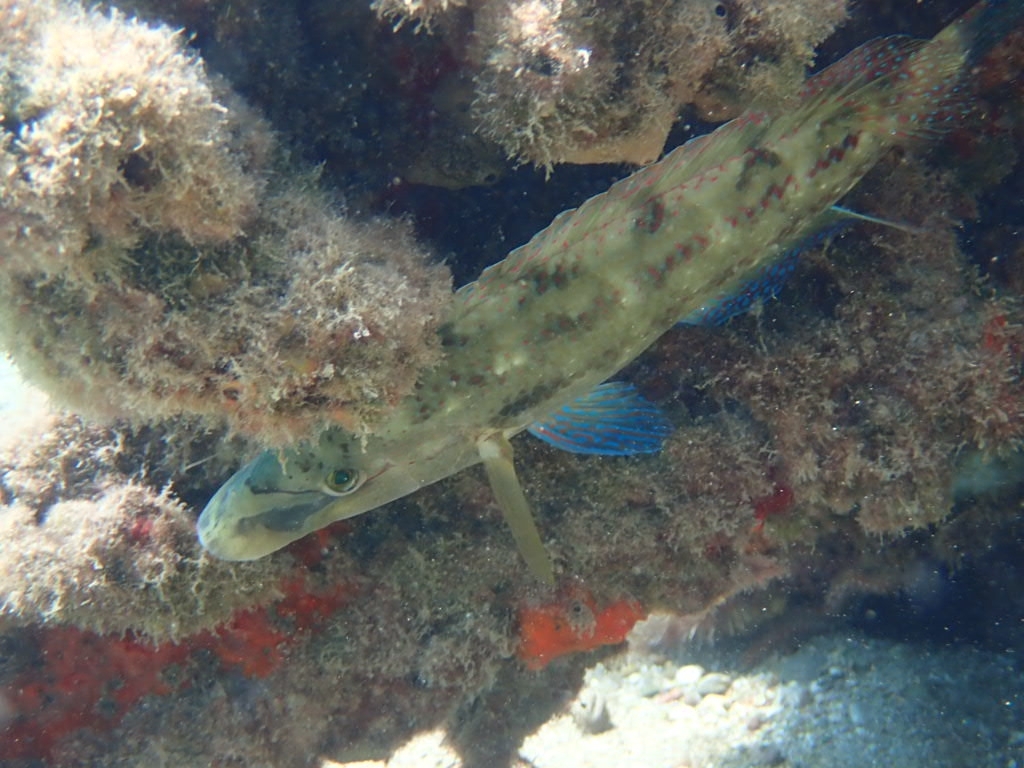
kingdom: Animalia
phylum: Chordata
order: Perciformes
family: Labridae
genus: Symphodus
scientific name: Symphodus tinca
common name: Peacock wrasse
